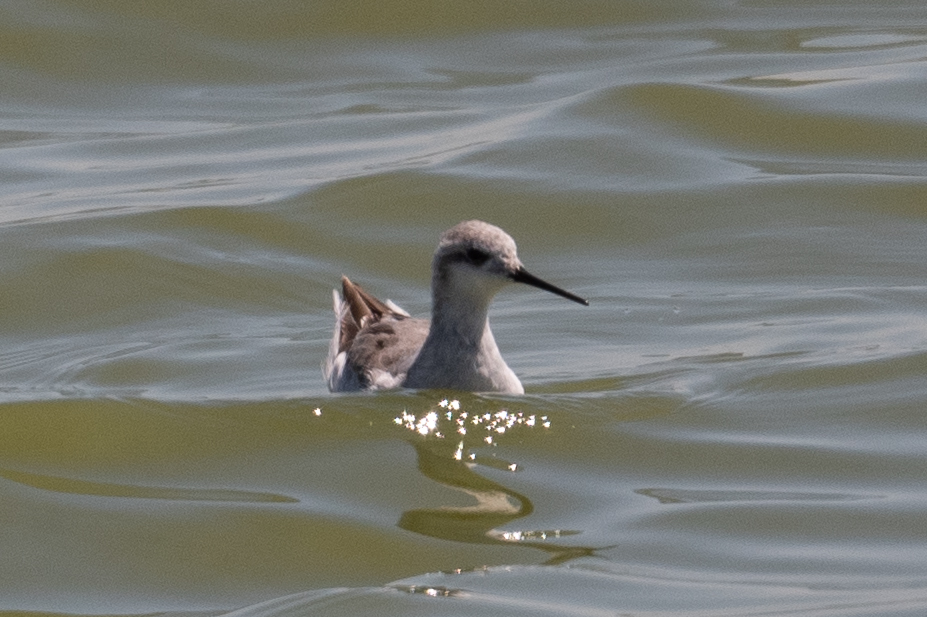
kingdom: Animalia
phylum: Chordata
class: Aves
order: Charadriiformes
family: Scolopacidae
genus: Phalaropus
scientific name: Phalaropus tricolor
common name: Wilson's phalarope
